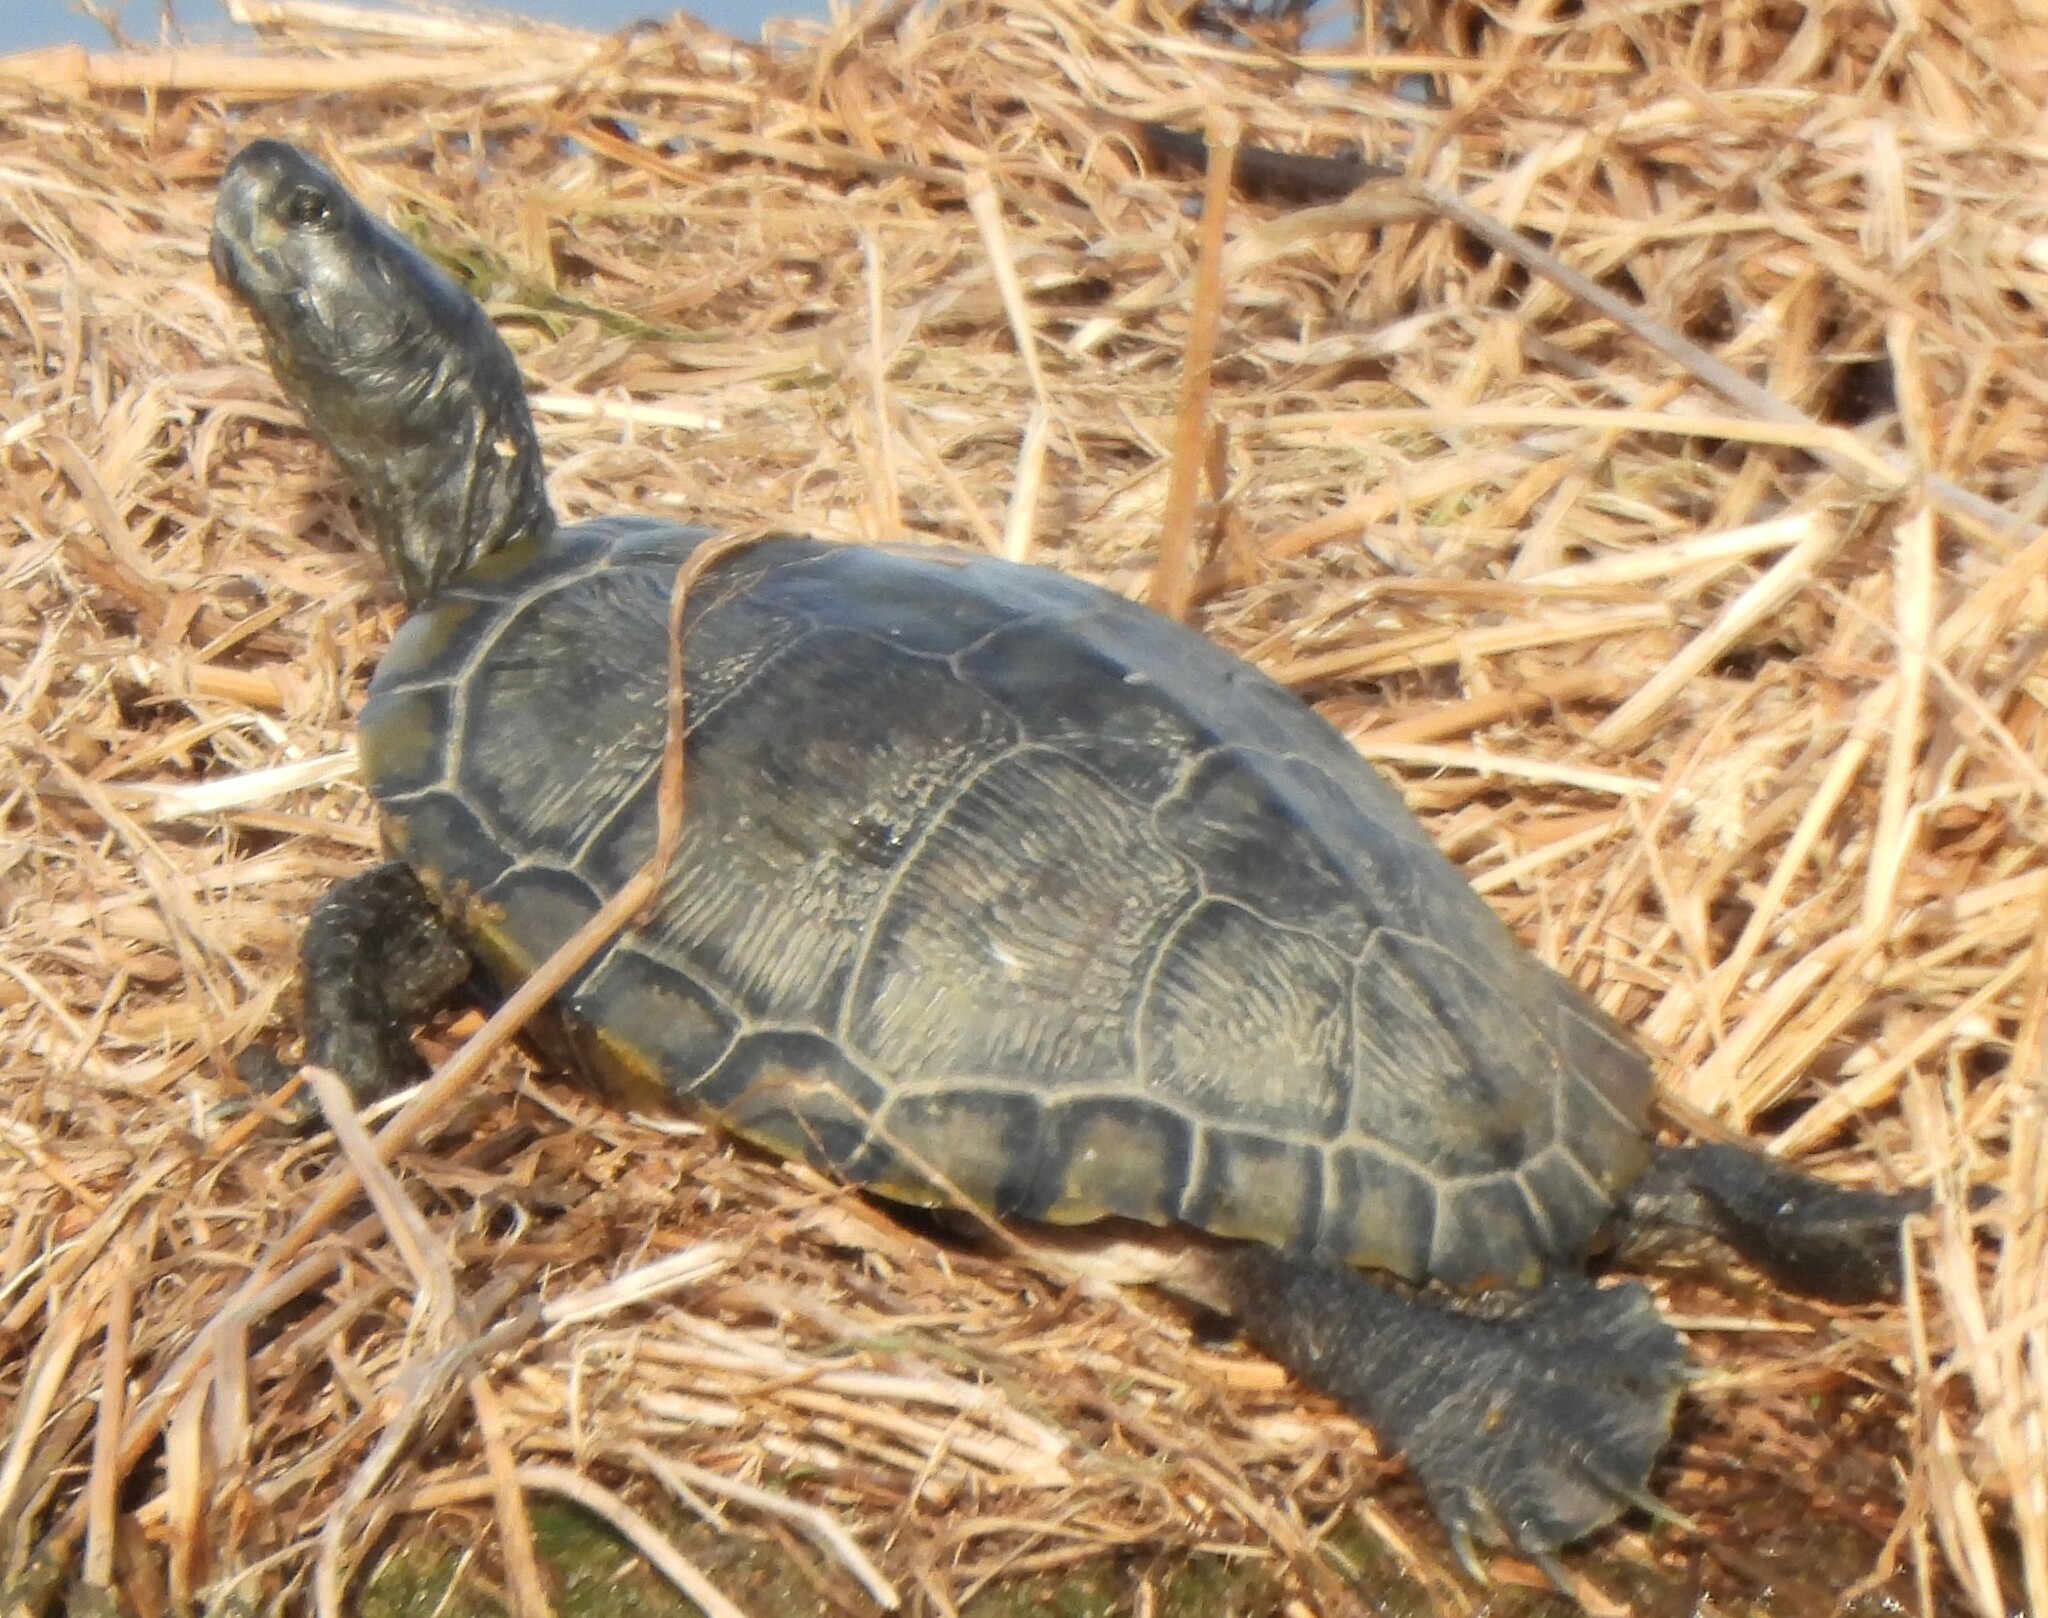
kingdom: Animalia
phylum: Chordata
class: Testudines
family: Emydidae
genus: Trachemys
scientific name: Trachemys scripta
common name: Slider
